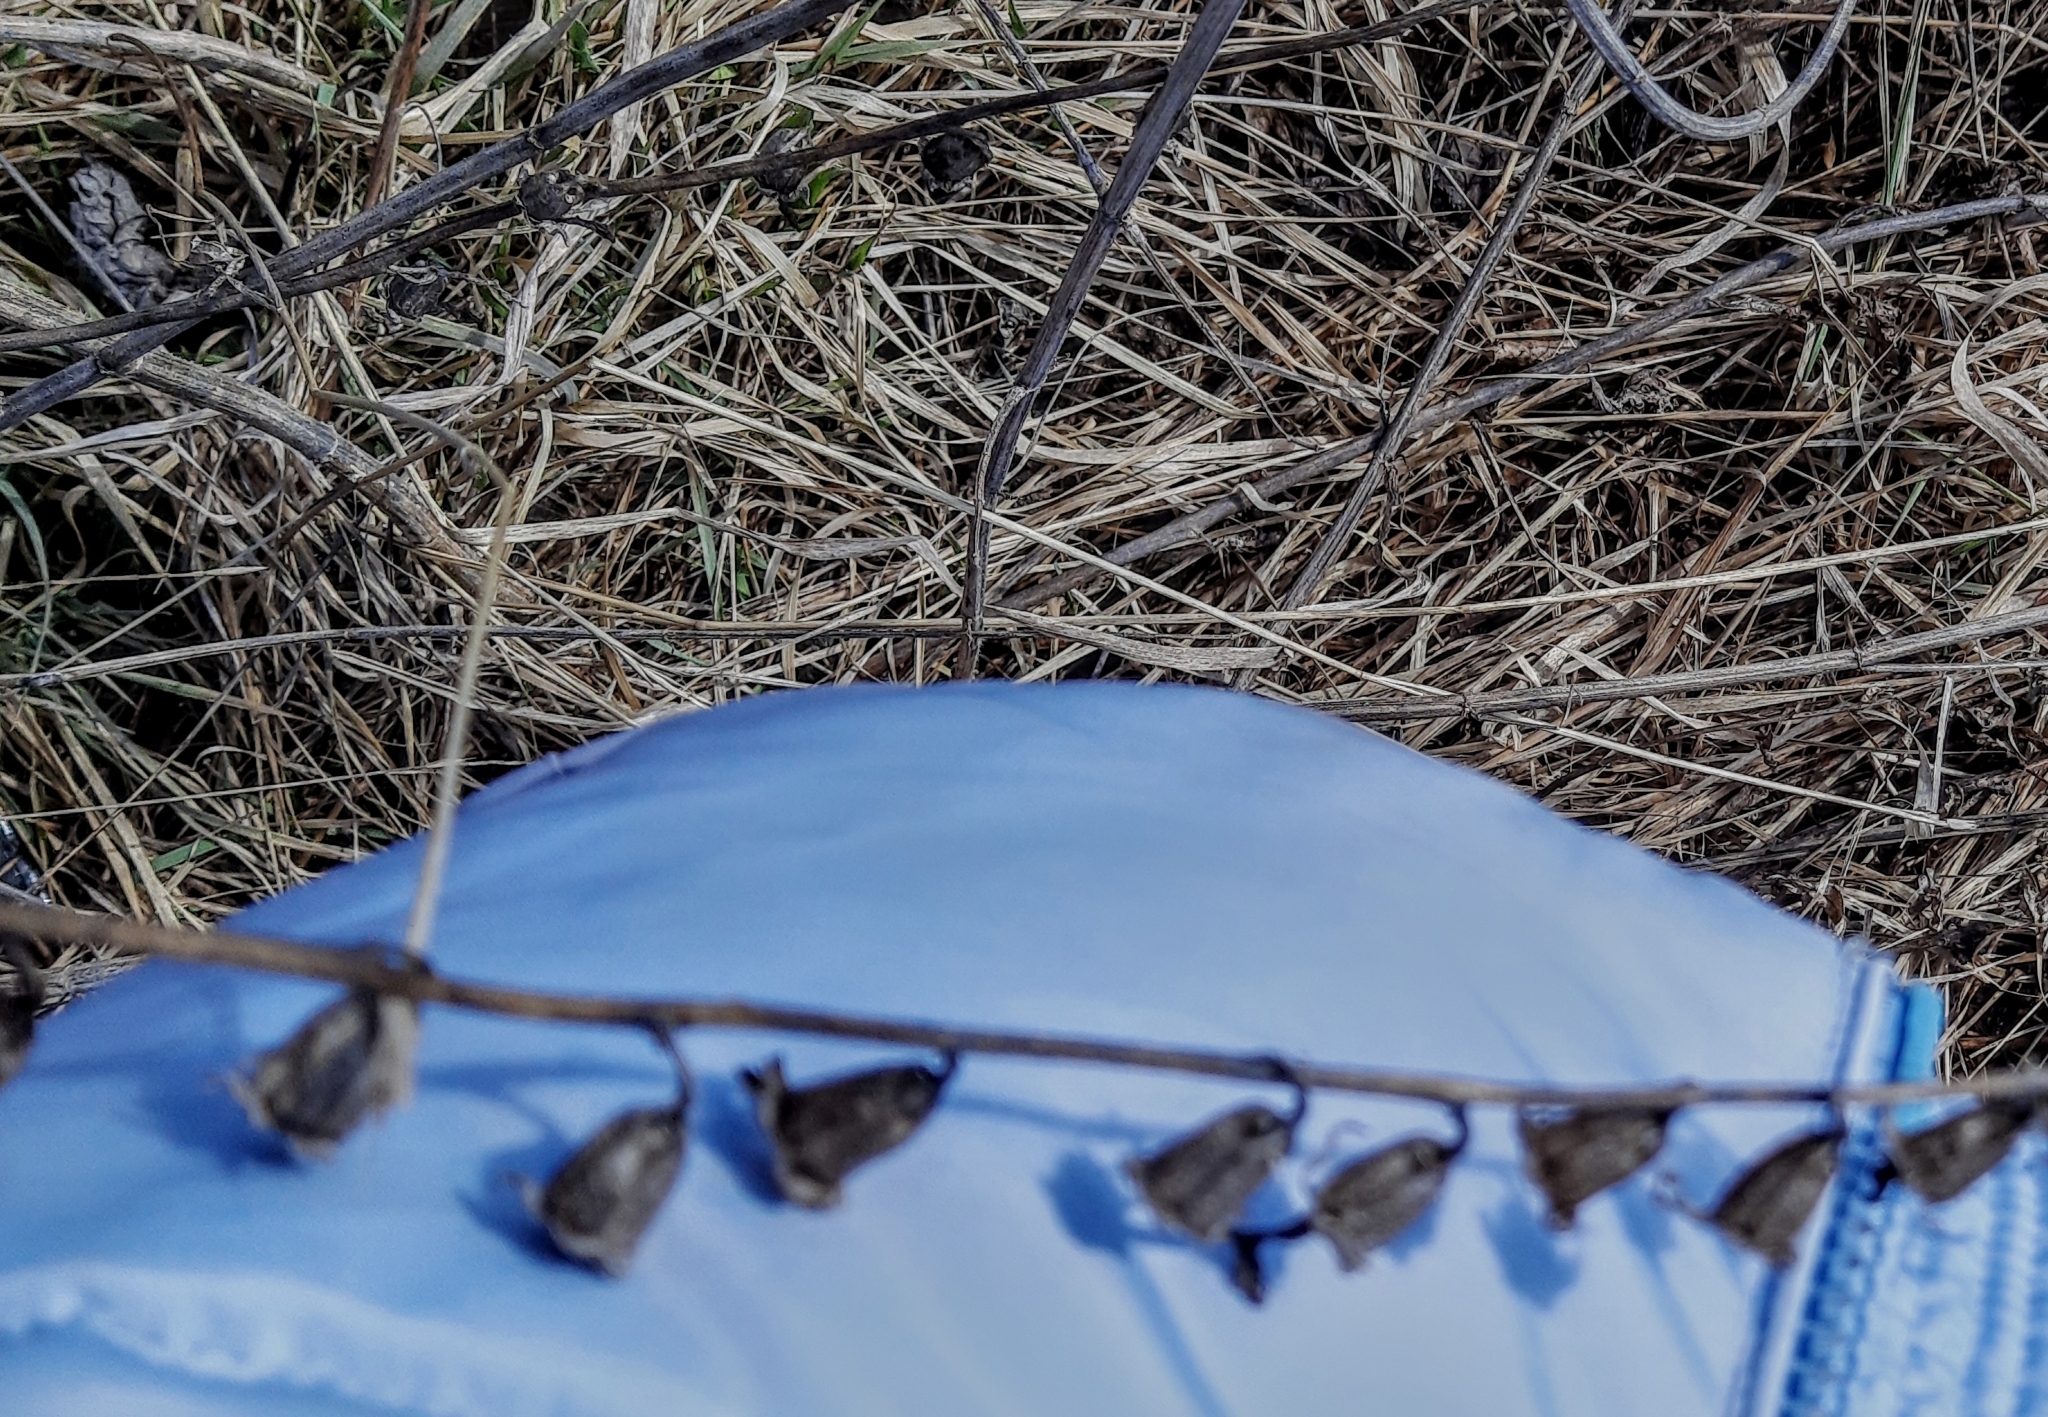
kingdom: Plantae
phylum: Tracheophyta
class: Magnoliopsida
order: Asterales
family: Campanulaceae
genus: Campanula
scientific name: Campanula rapunculoides
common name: Creeping bellflower
